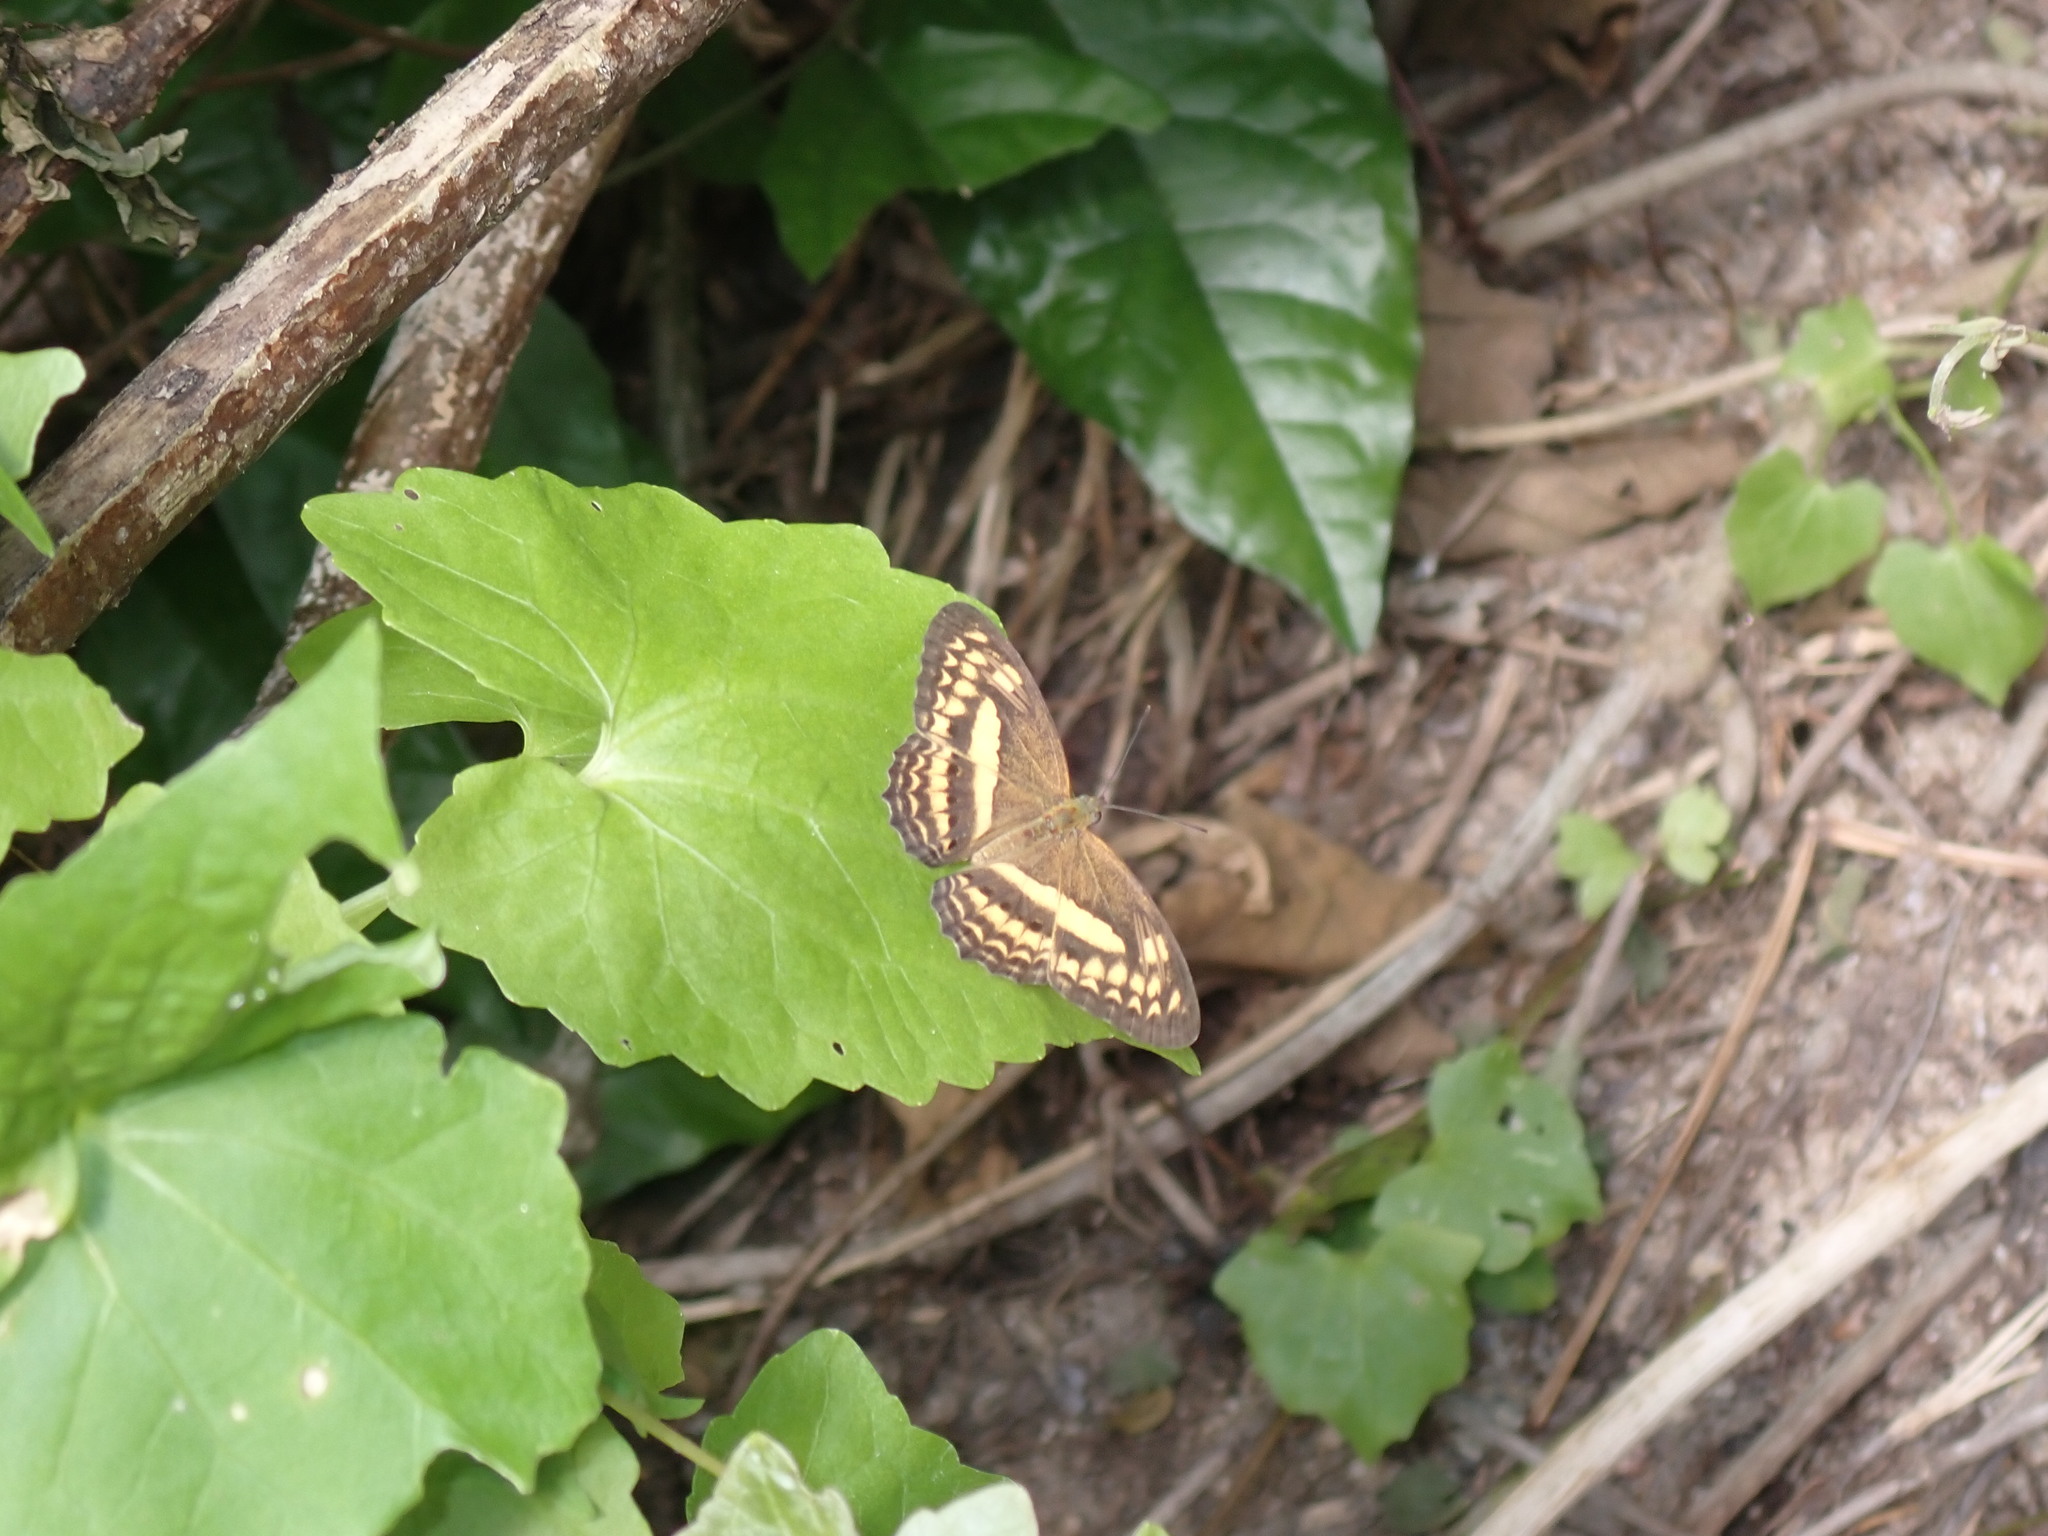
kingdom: Animalia
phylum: Arthropoda
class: Insecta
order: Lepidoptera
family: Nymphalidae
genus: Algia
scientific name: Algia fasciata
